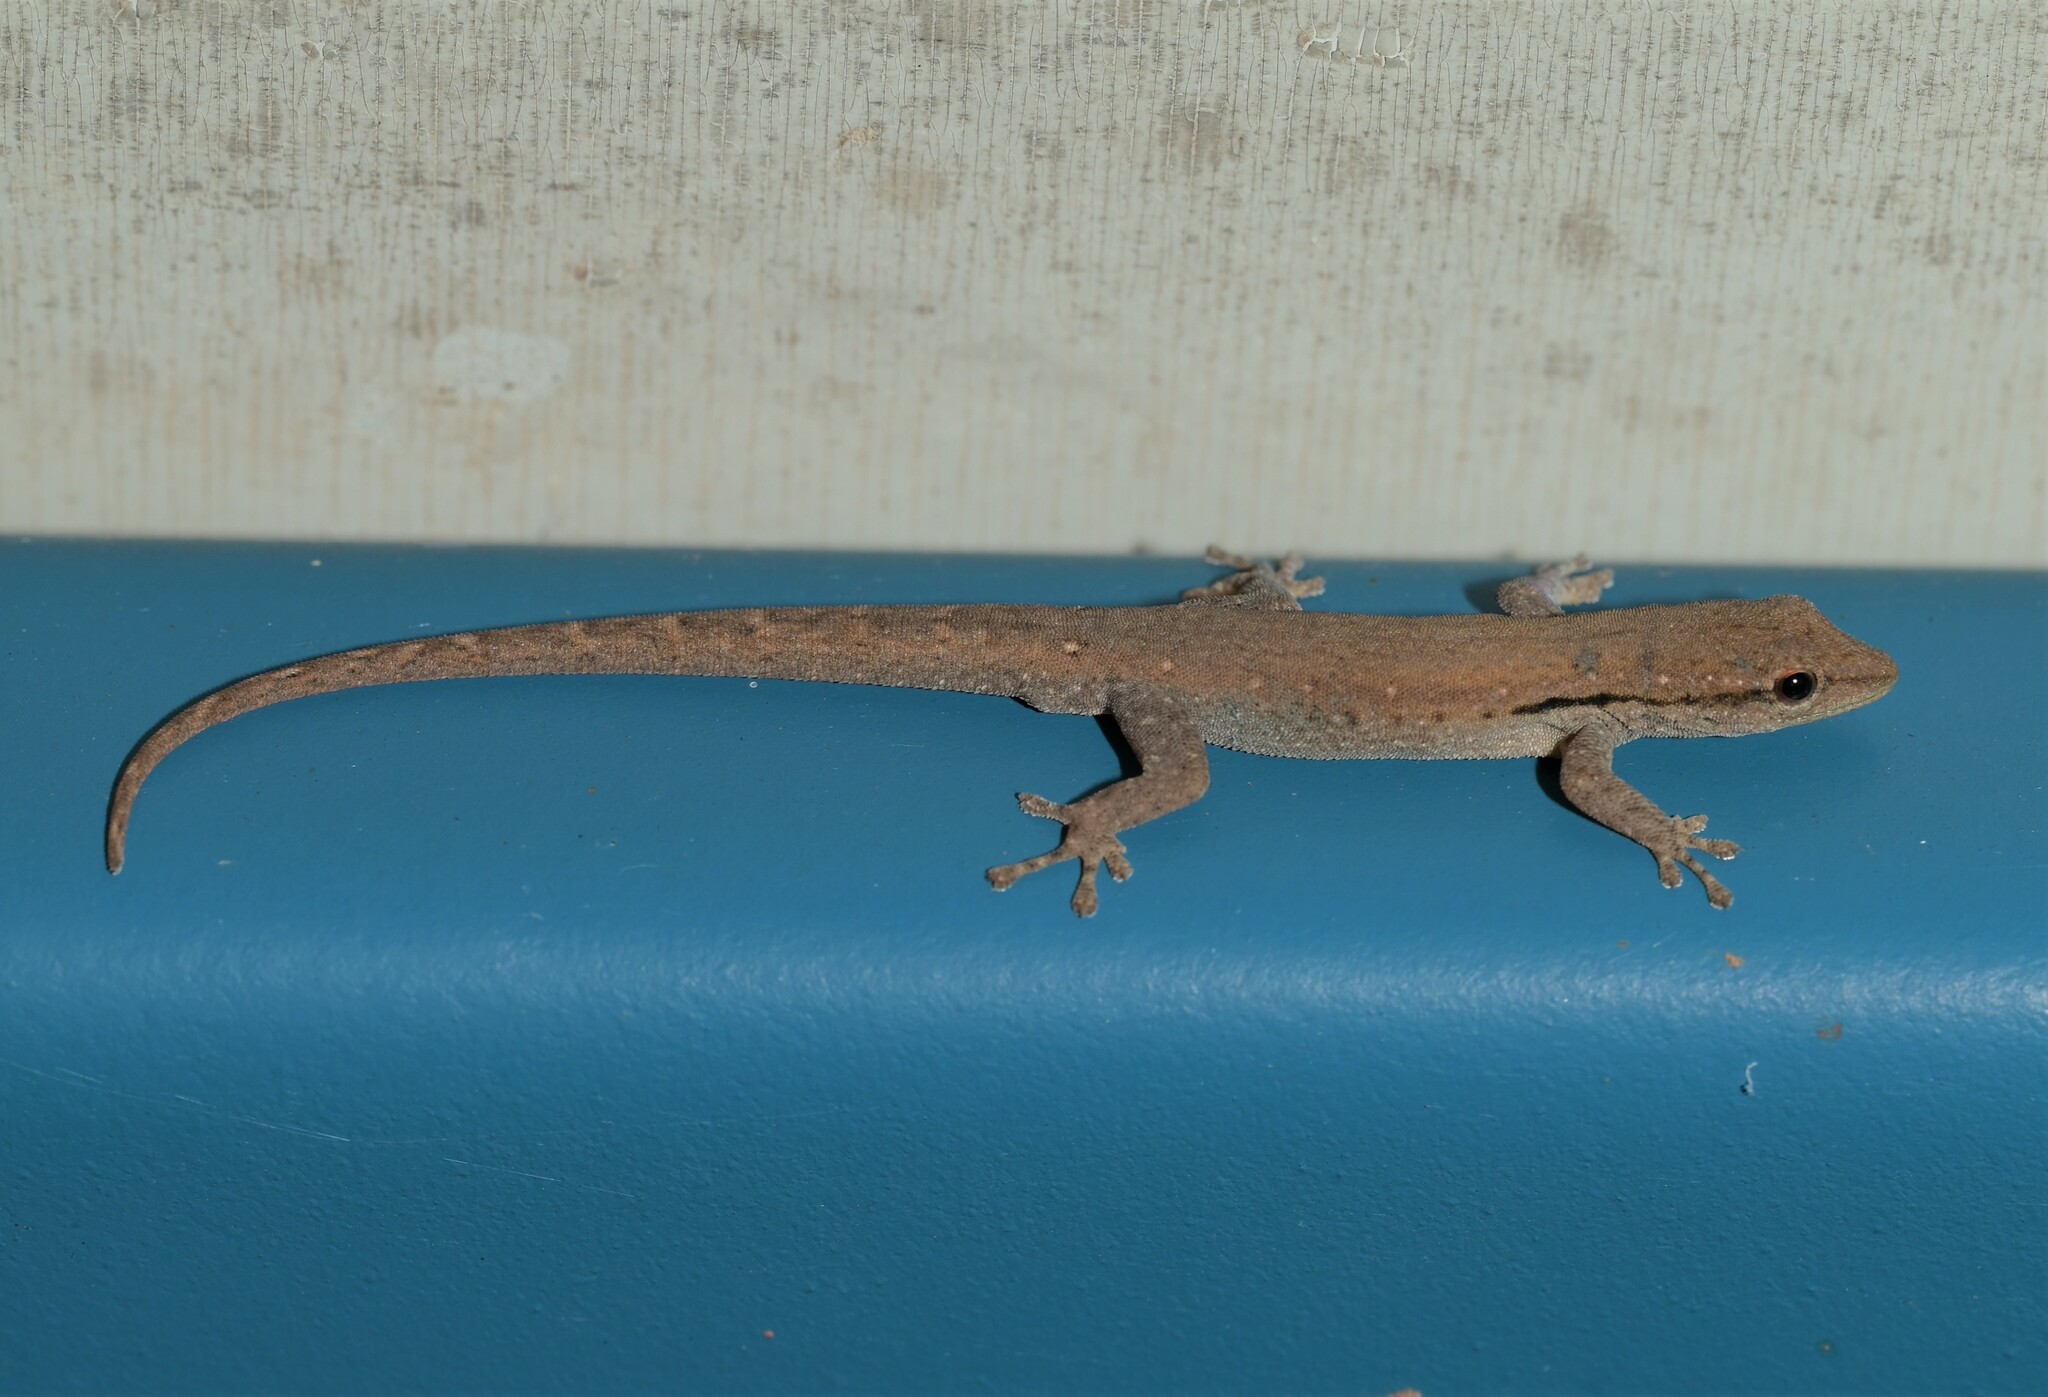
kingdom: Animalia
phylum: Chordata
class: Squamata
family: Gekkonidae
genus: Lygodactylus
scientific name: Lygodactylus capensis
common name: Cape dwarf gecko
